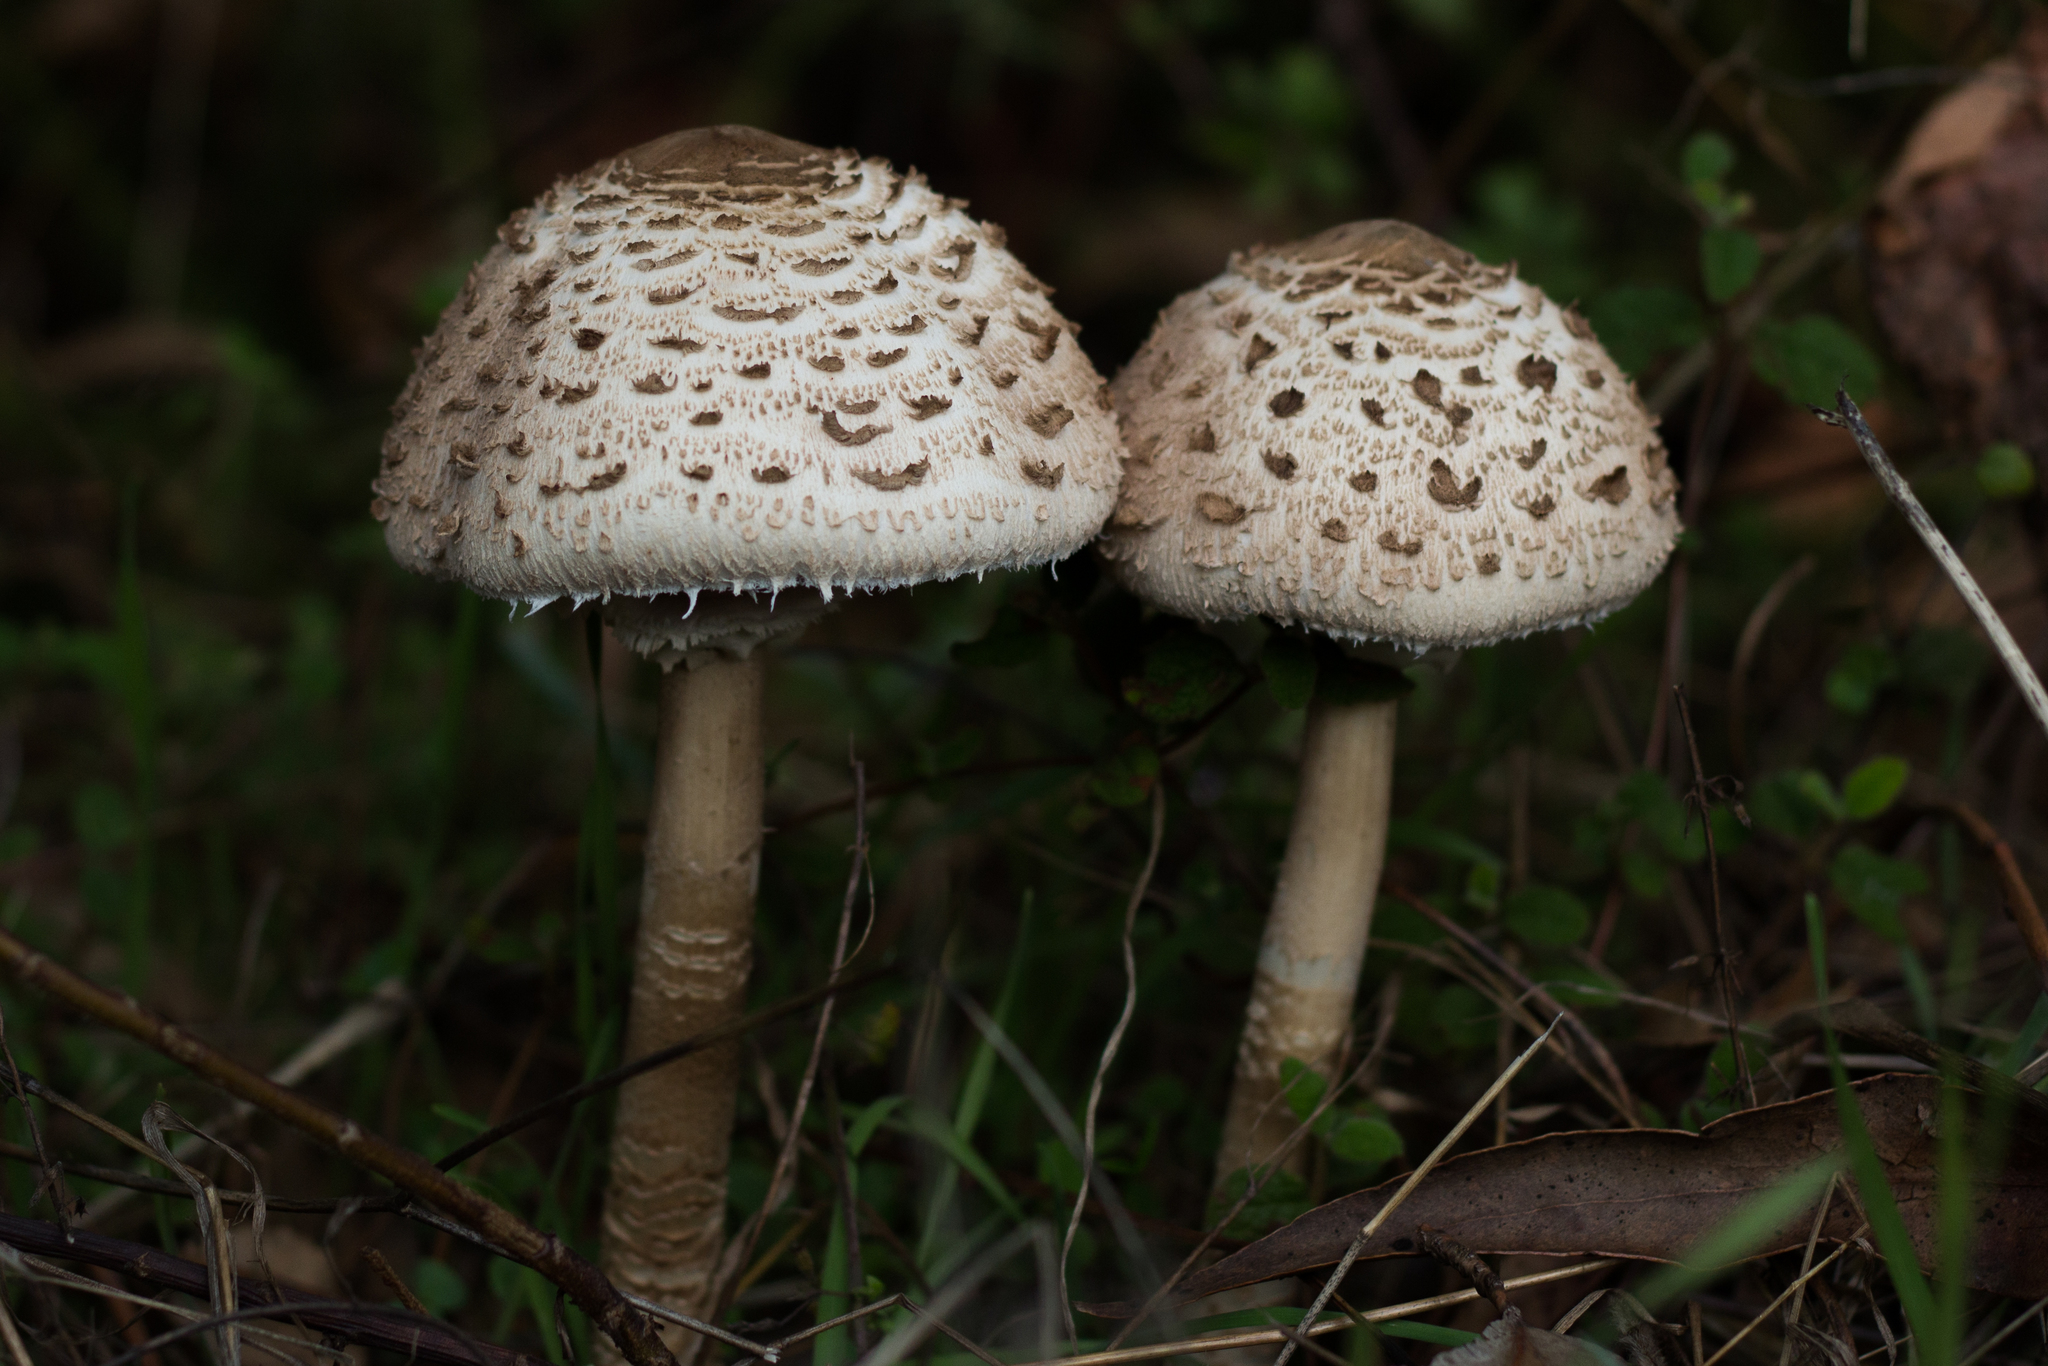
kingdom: Fungi
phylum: Basidiomycota
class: Agaricomycetes
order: Agaricales
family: Agaricaceae
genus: Macrolepiota
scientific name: Macrolepiota procera
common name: Parasol
